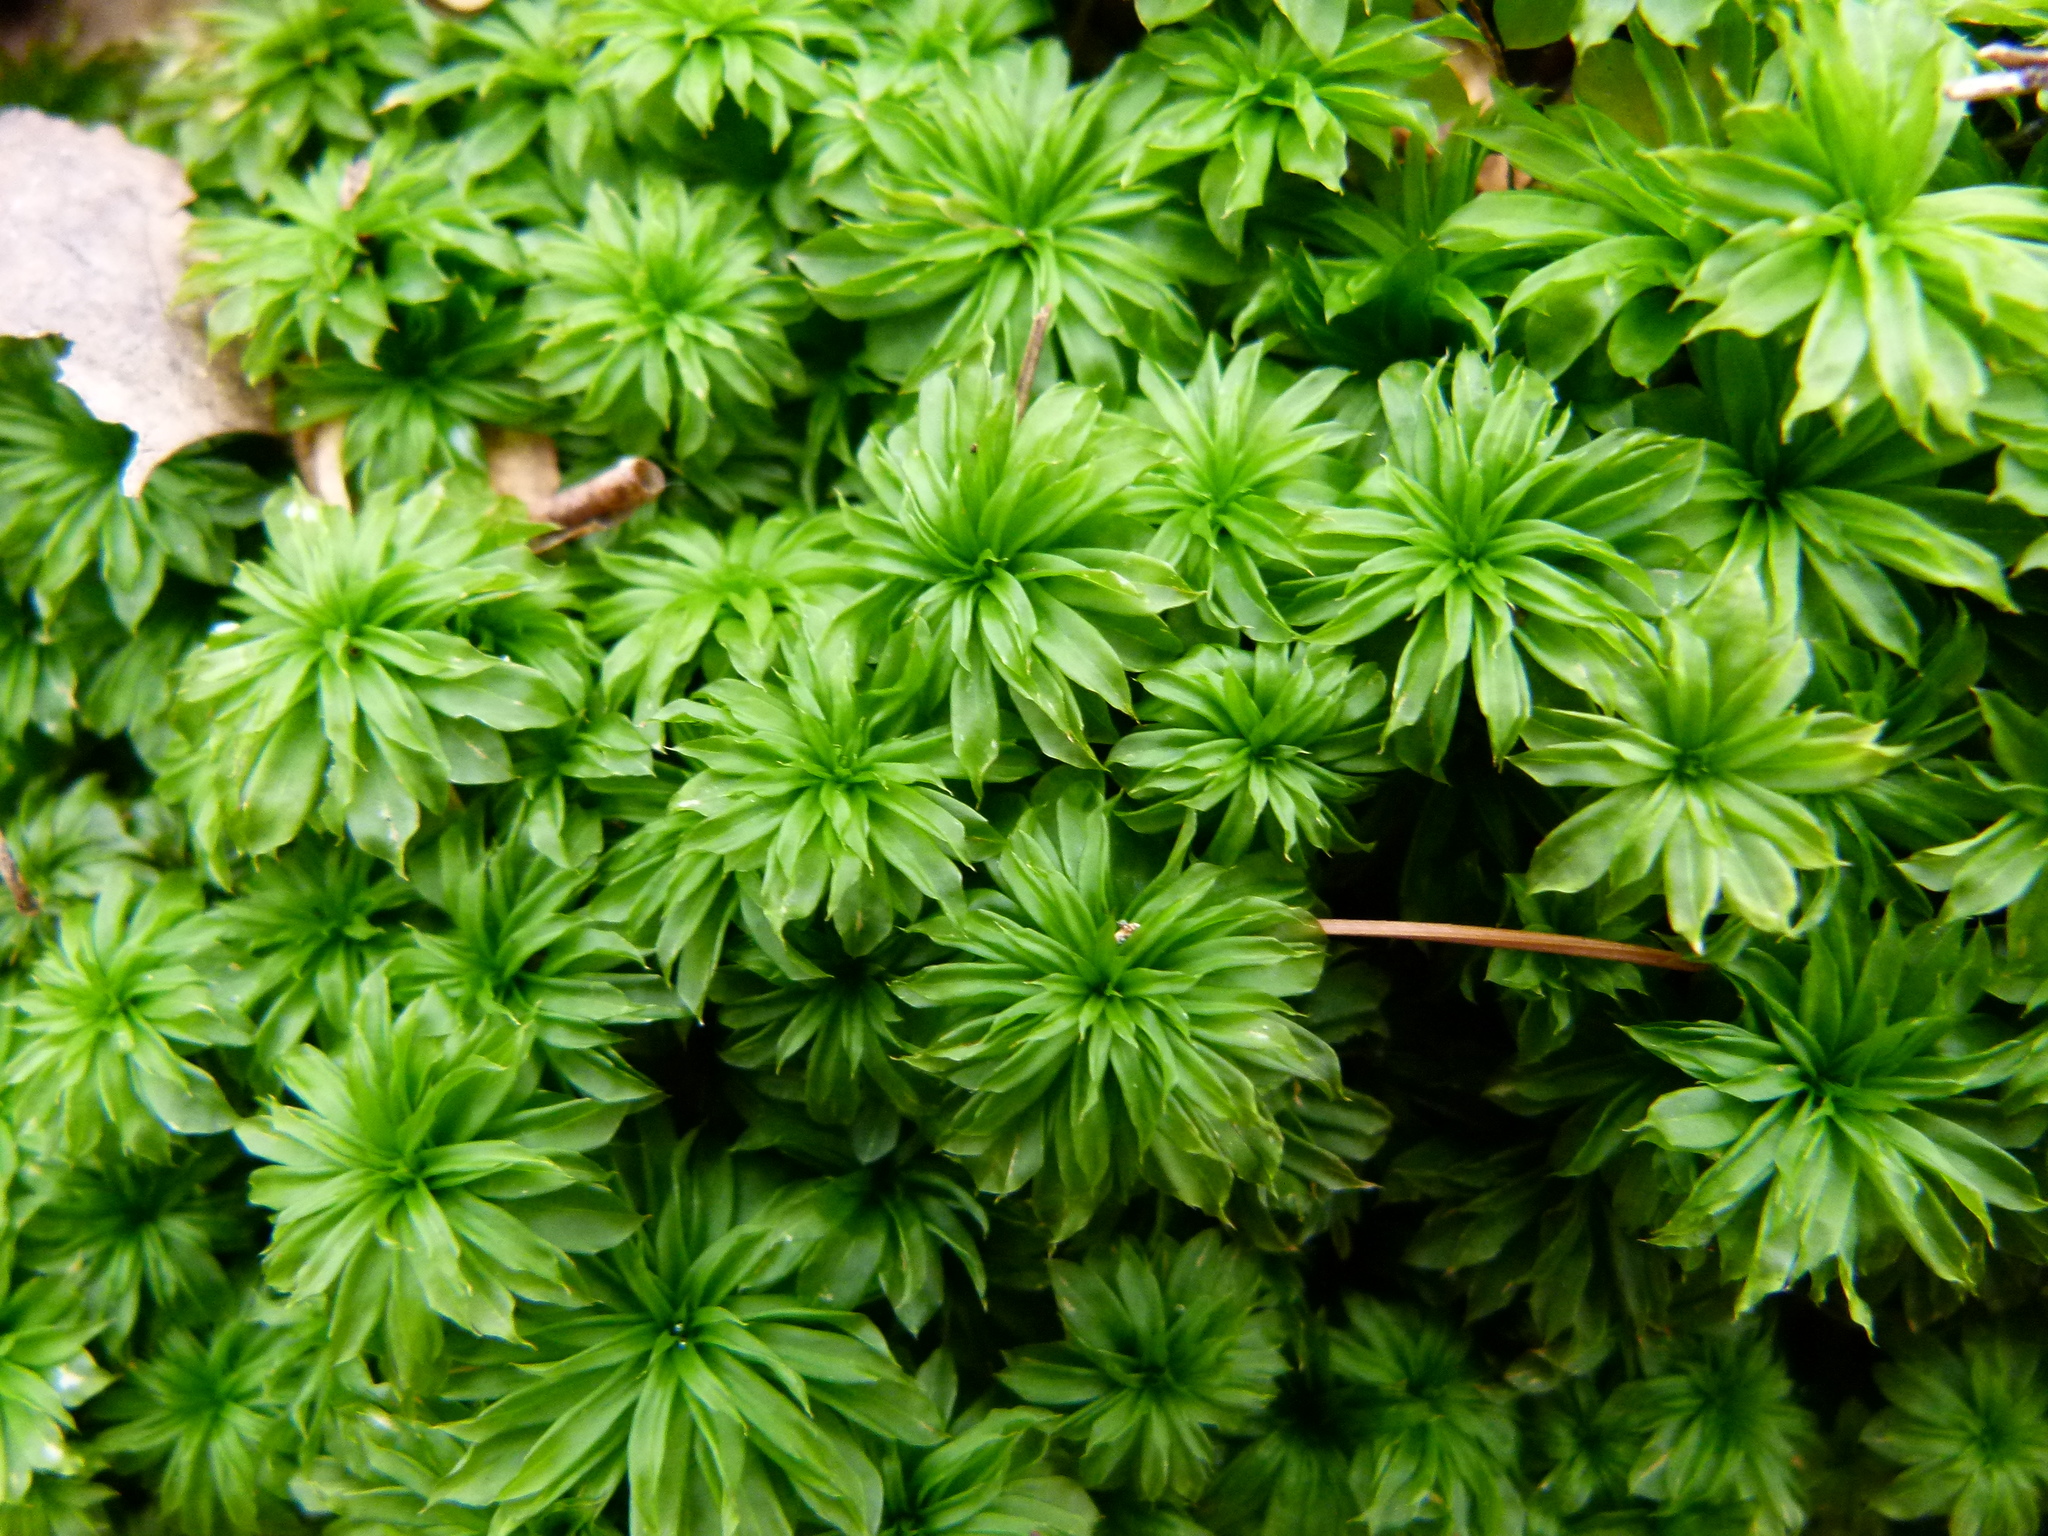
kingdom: Plantae
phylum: Bryophyta
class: Bryopsida
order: Bryales
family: Bryaceae
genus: Rhodobryum
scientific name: Rhodobryum ontariense
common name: Ontario rhodobryum moss
